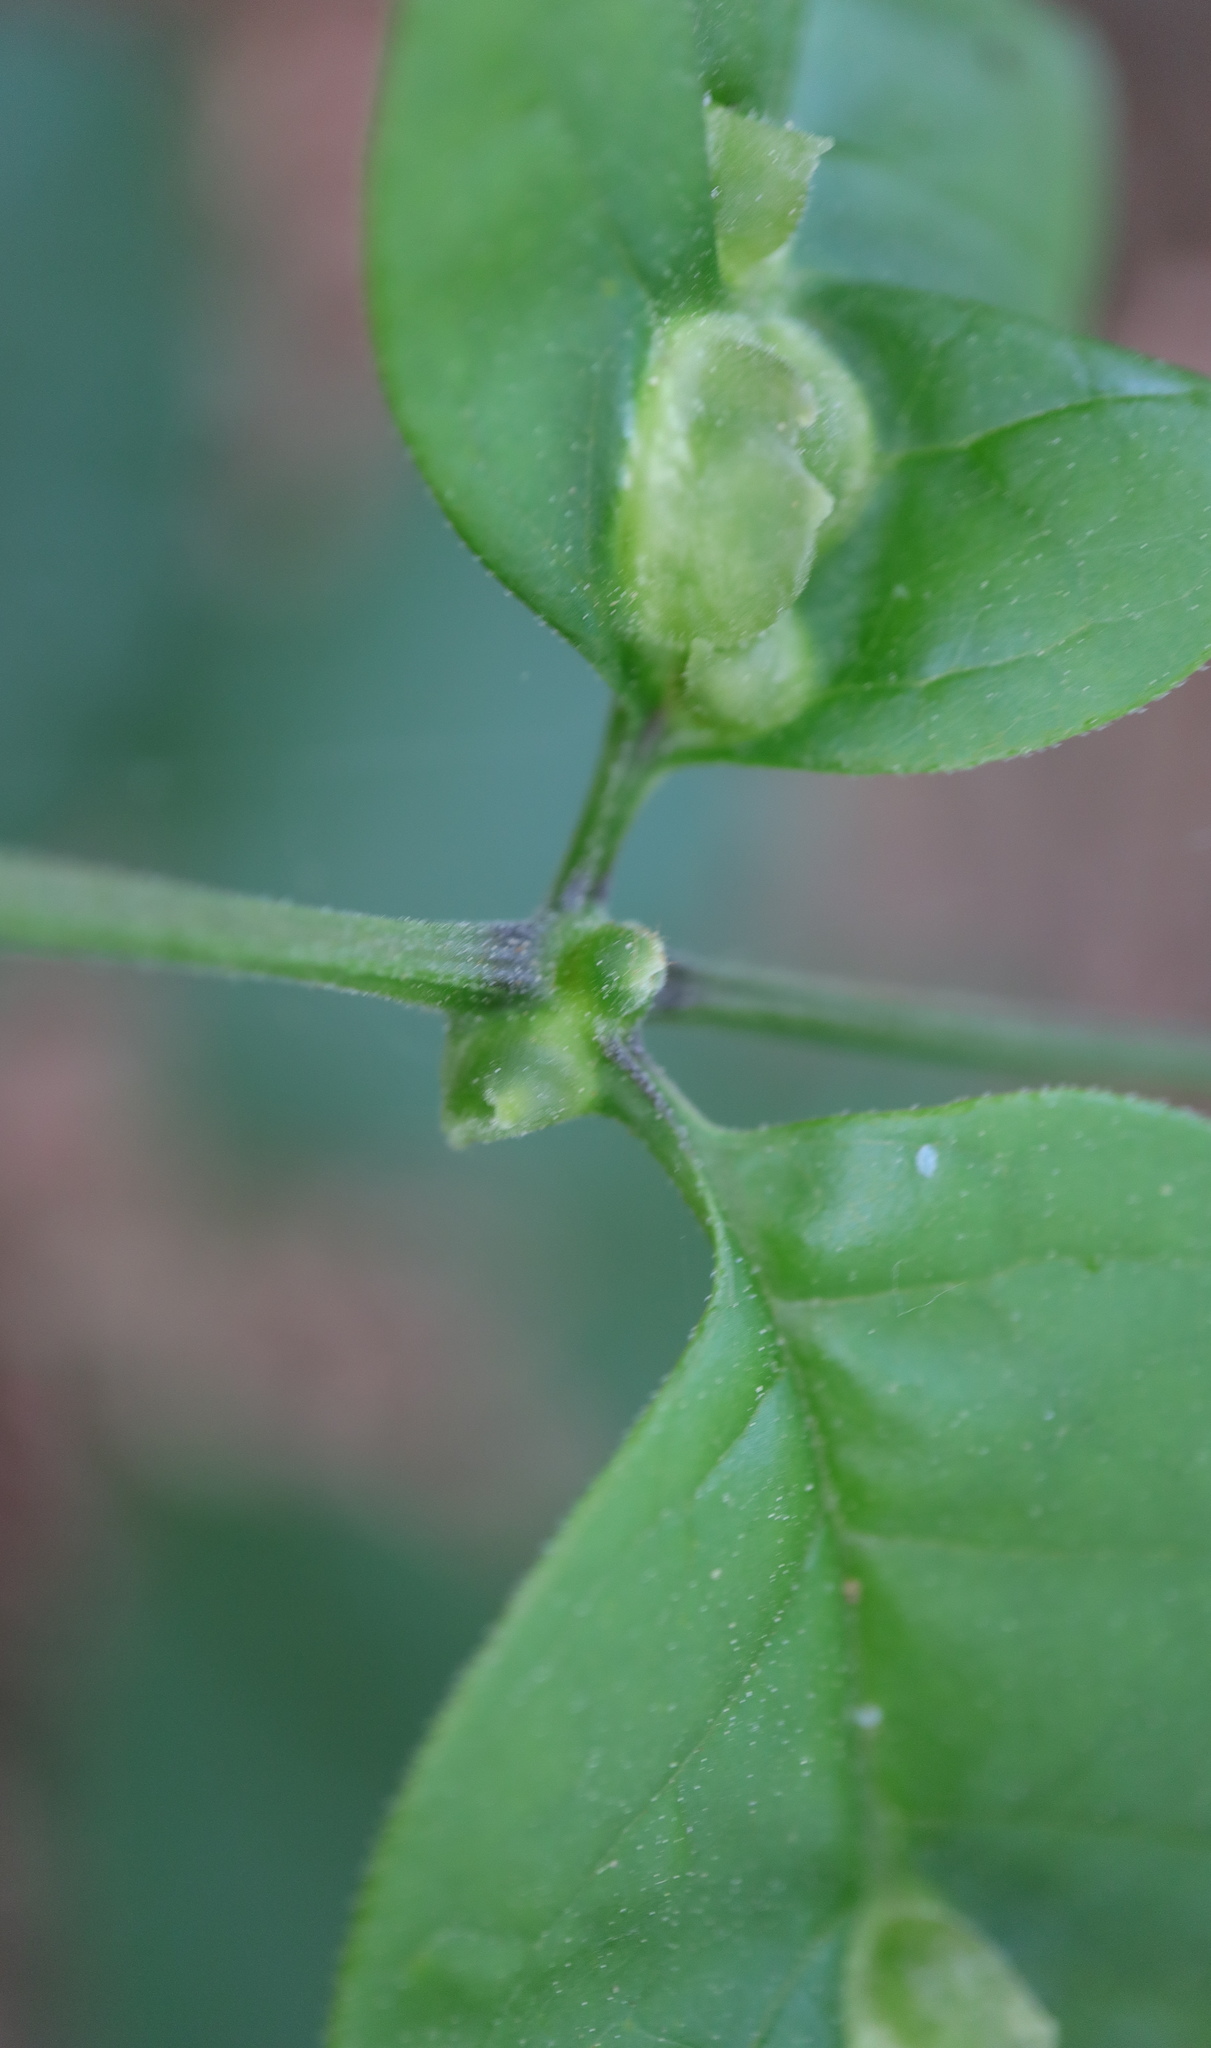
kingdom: Animalia
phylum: Arthropoda
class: Arachnida
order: Trombidiformes
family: Eriophyidae
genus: Aceria
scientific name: Aceria fraxinicola
